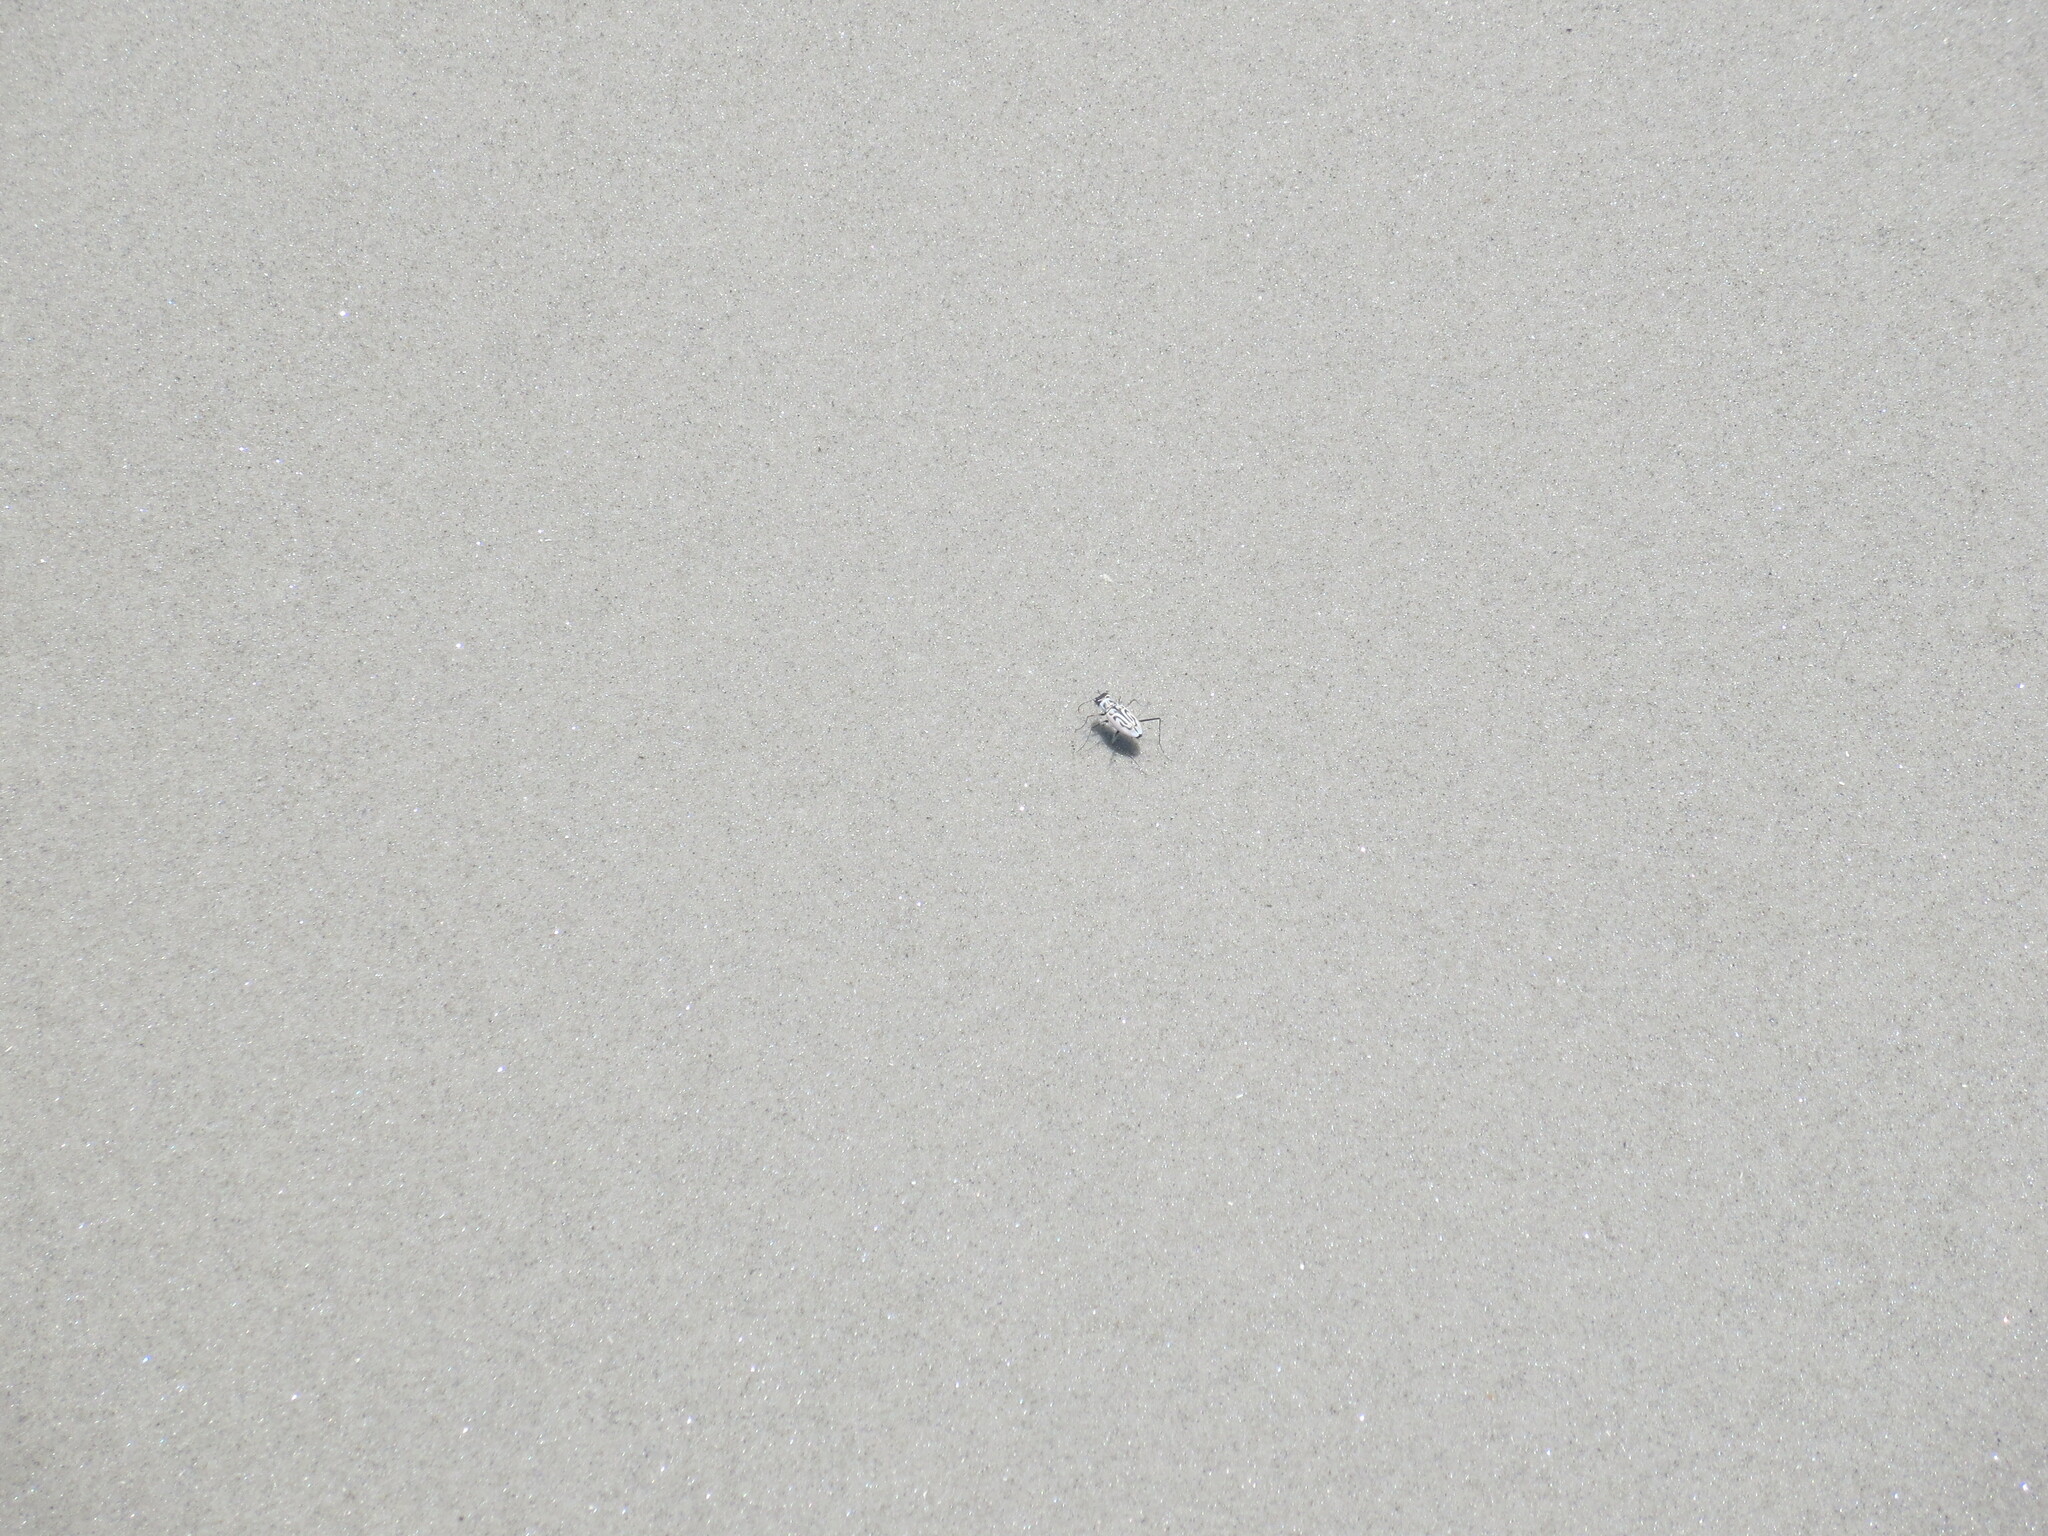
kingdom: Animalia
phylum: Arthropoda
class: Insecta
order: Coleoptera
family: Carabidae
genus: Habroscelimorpha
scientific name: Habroscelimorpha dorsalis
